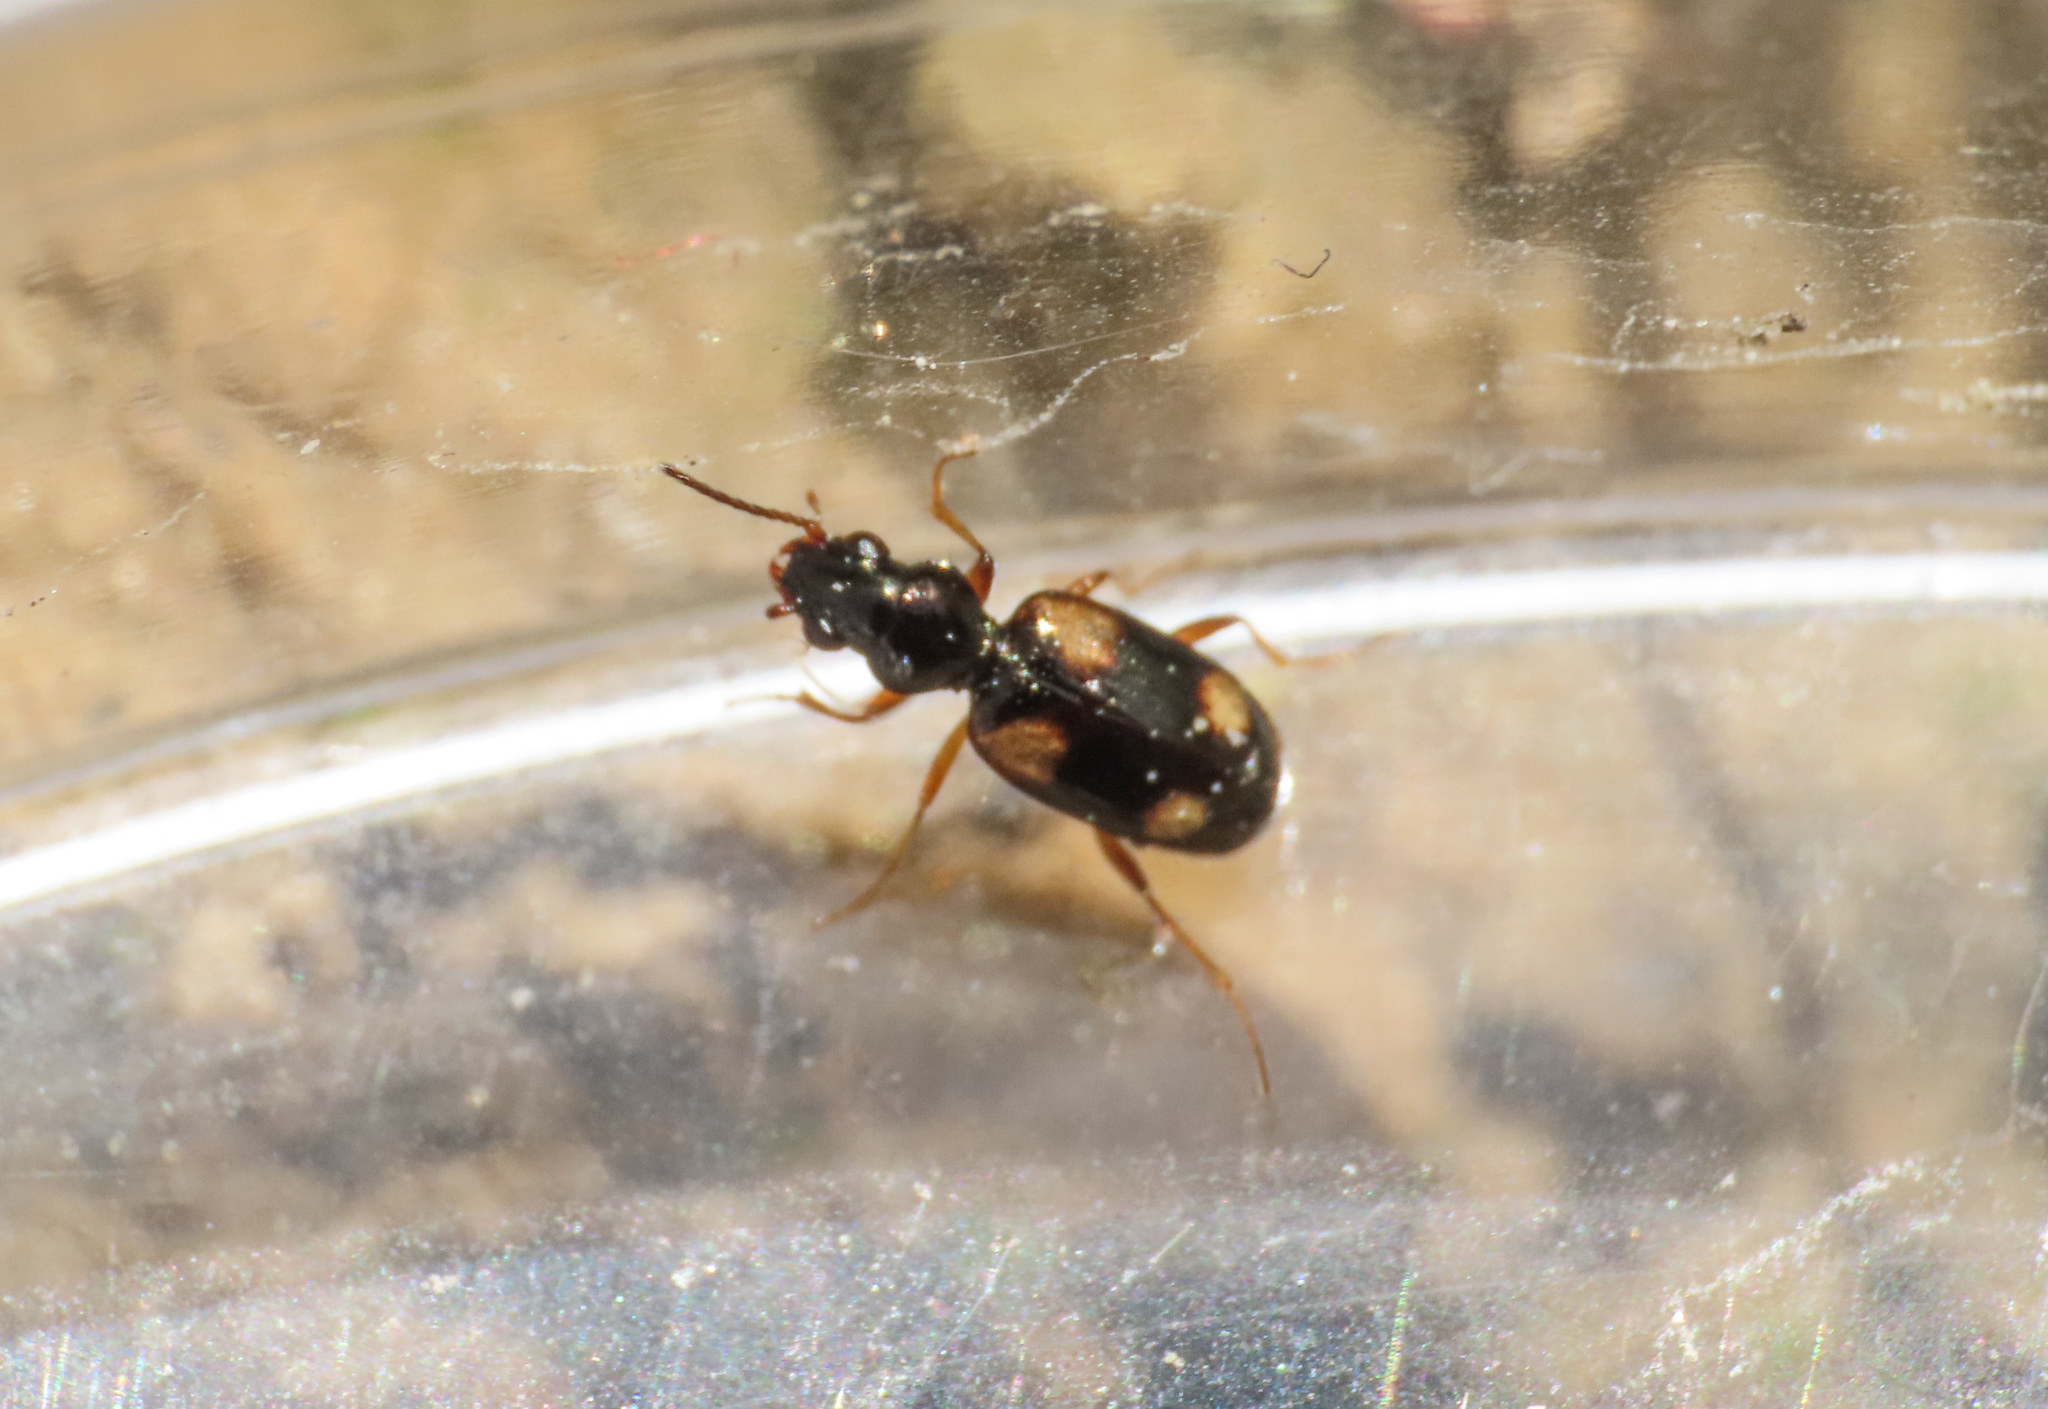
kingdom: Animalia
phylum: Arthropoda
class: Insecta
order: Coleoptera
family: Carabidae
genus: Bembidion
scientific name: Bembidion quadrimaculatum
